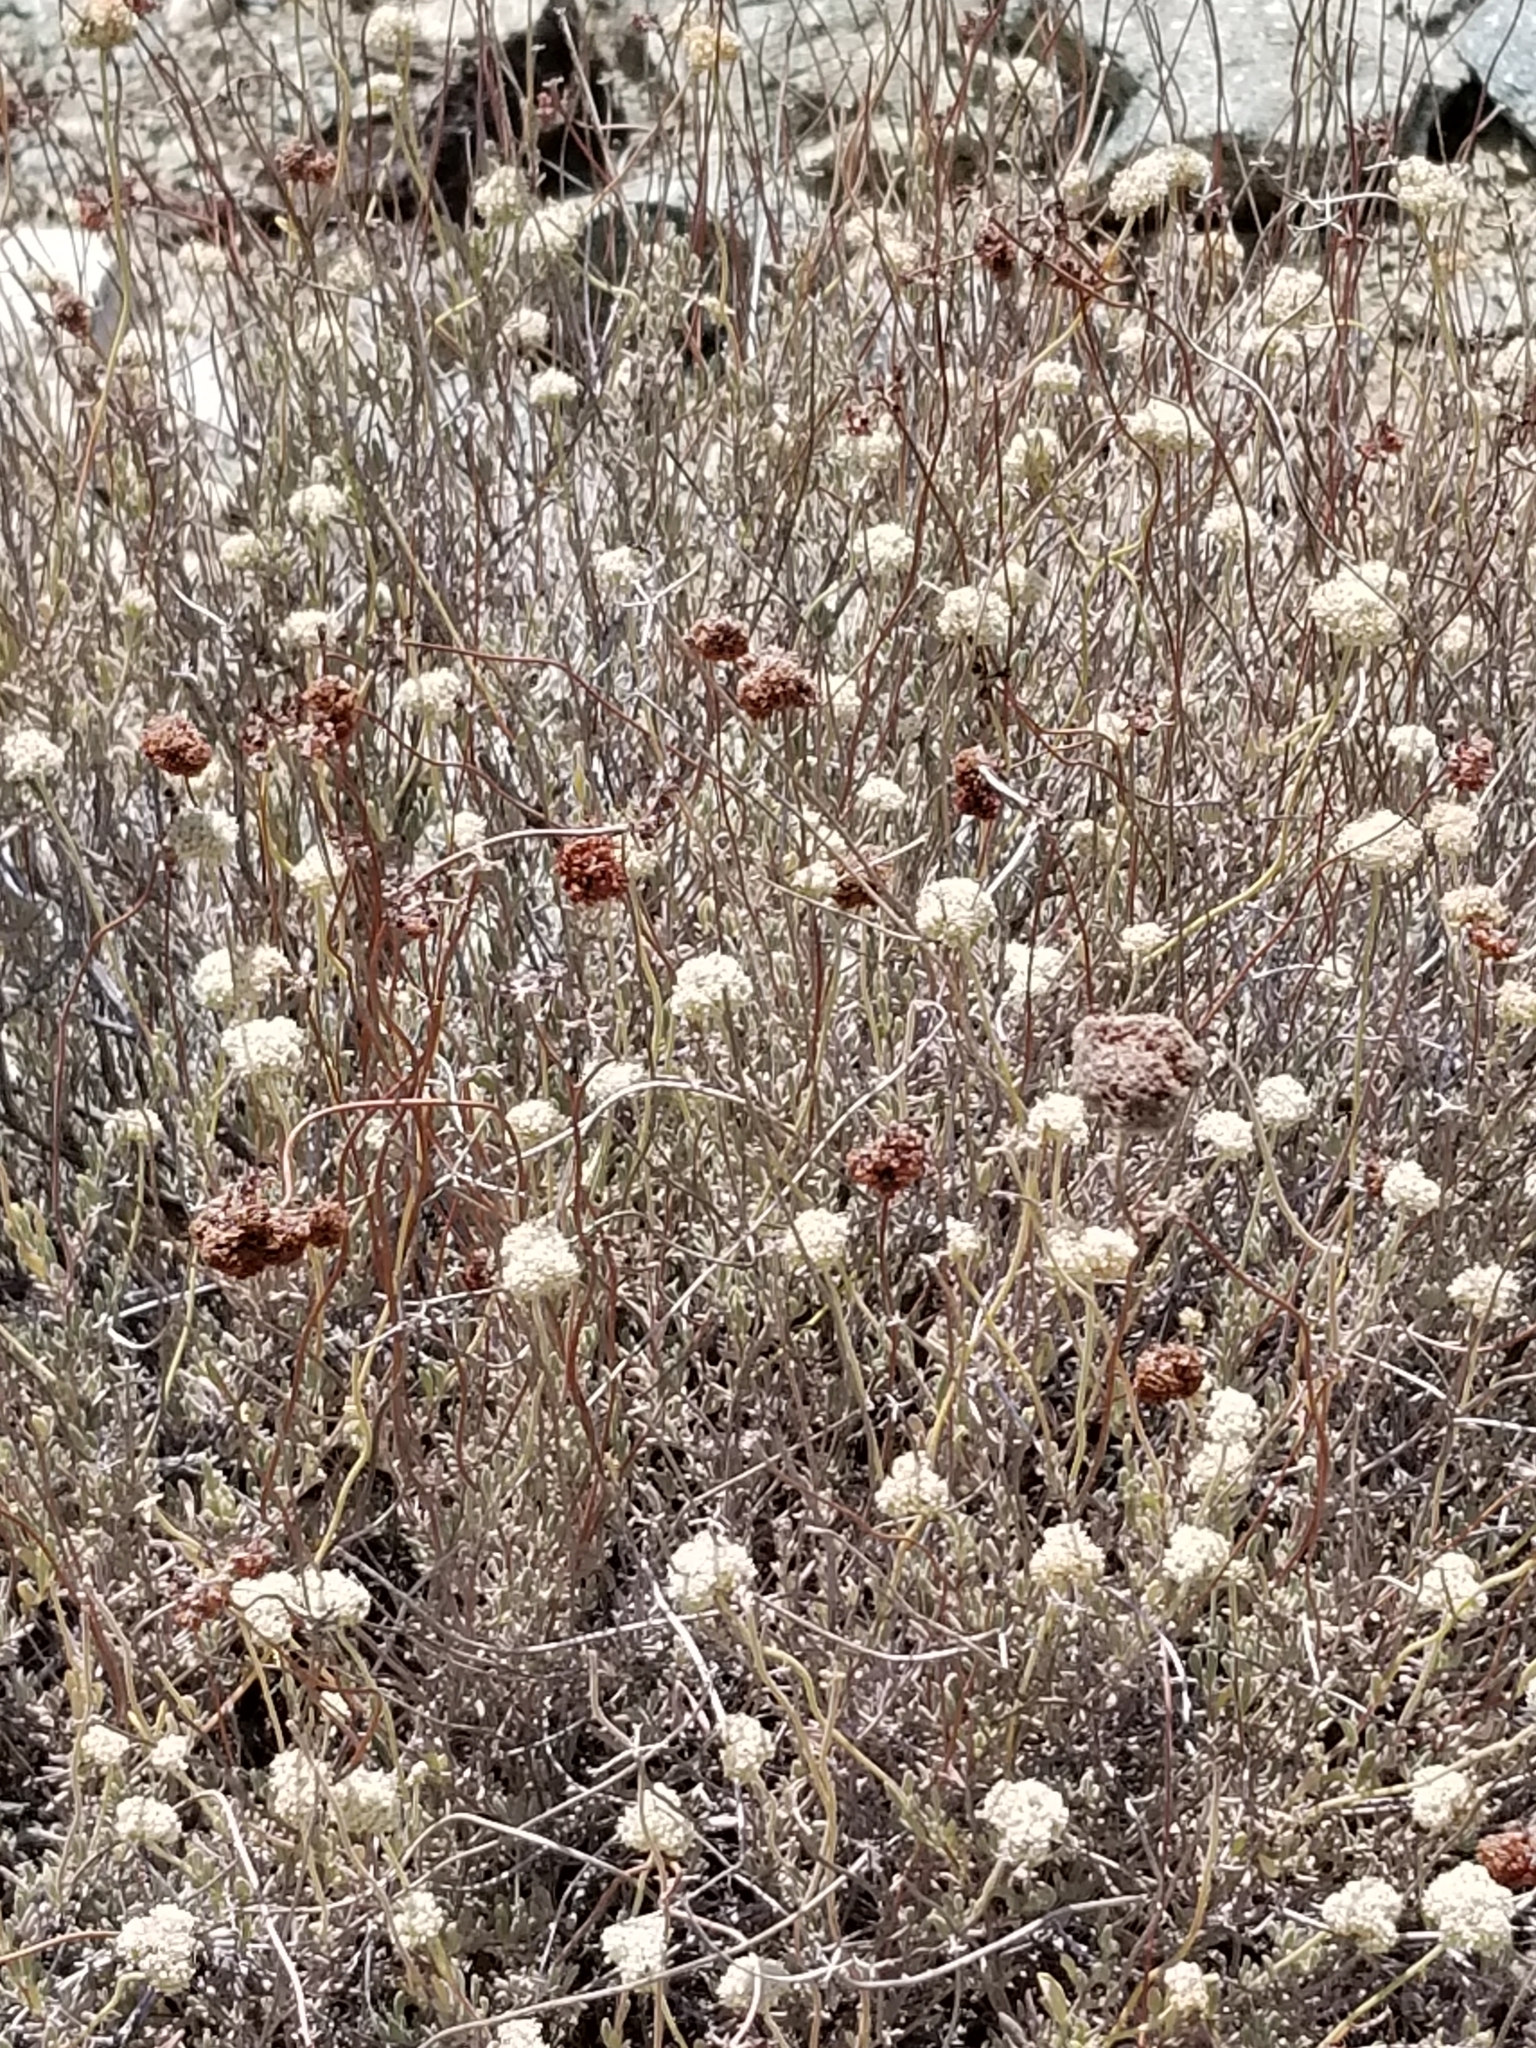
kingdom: Plantae
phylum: Tracheophyta
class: Magnoliopsida
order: Caryophyllales
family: Polygonaceae
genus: Eriogonum
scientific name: Eriogonum fasciculatum
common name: California wild buckwheat
